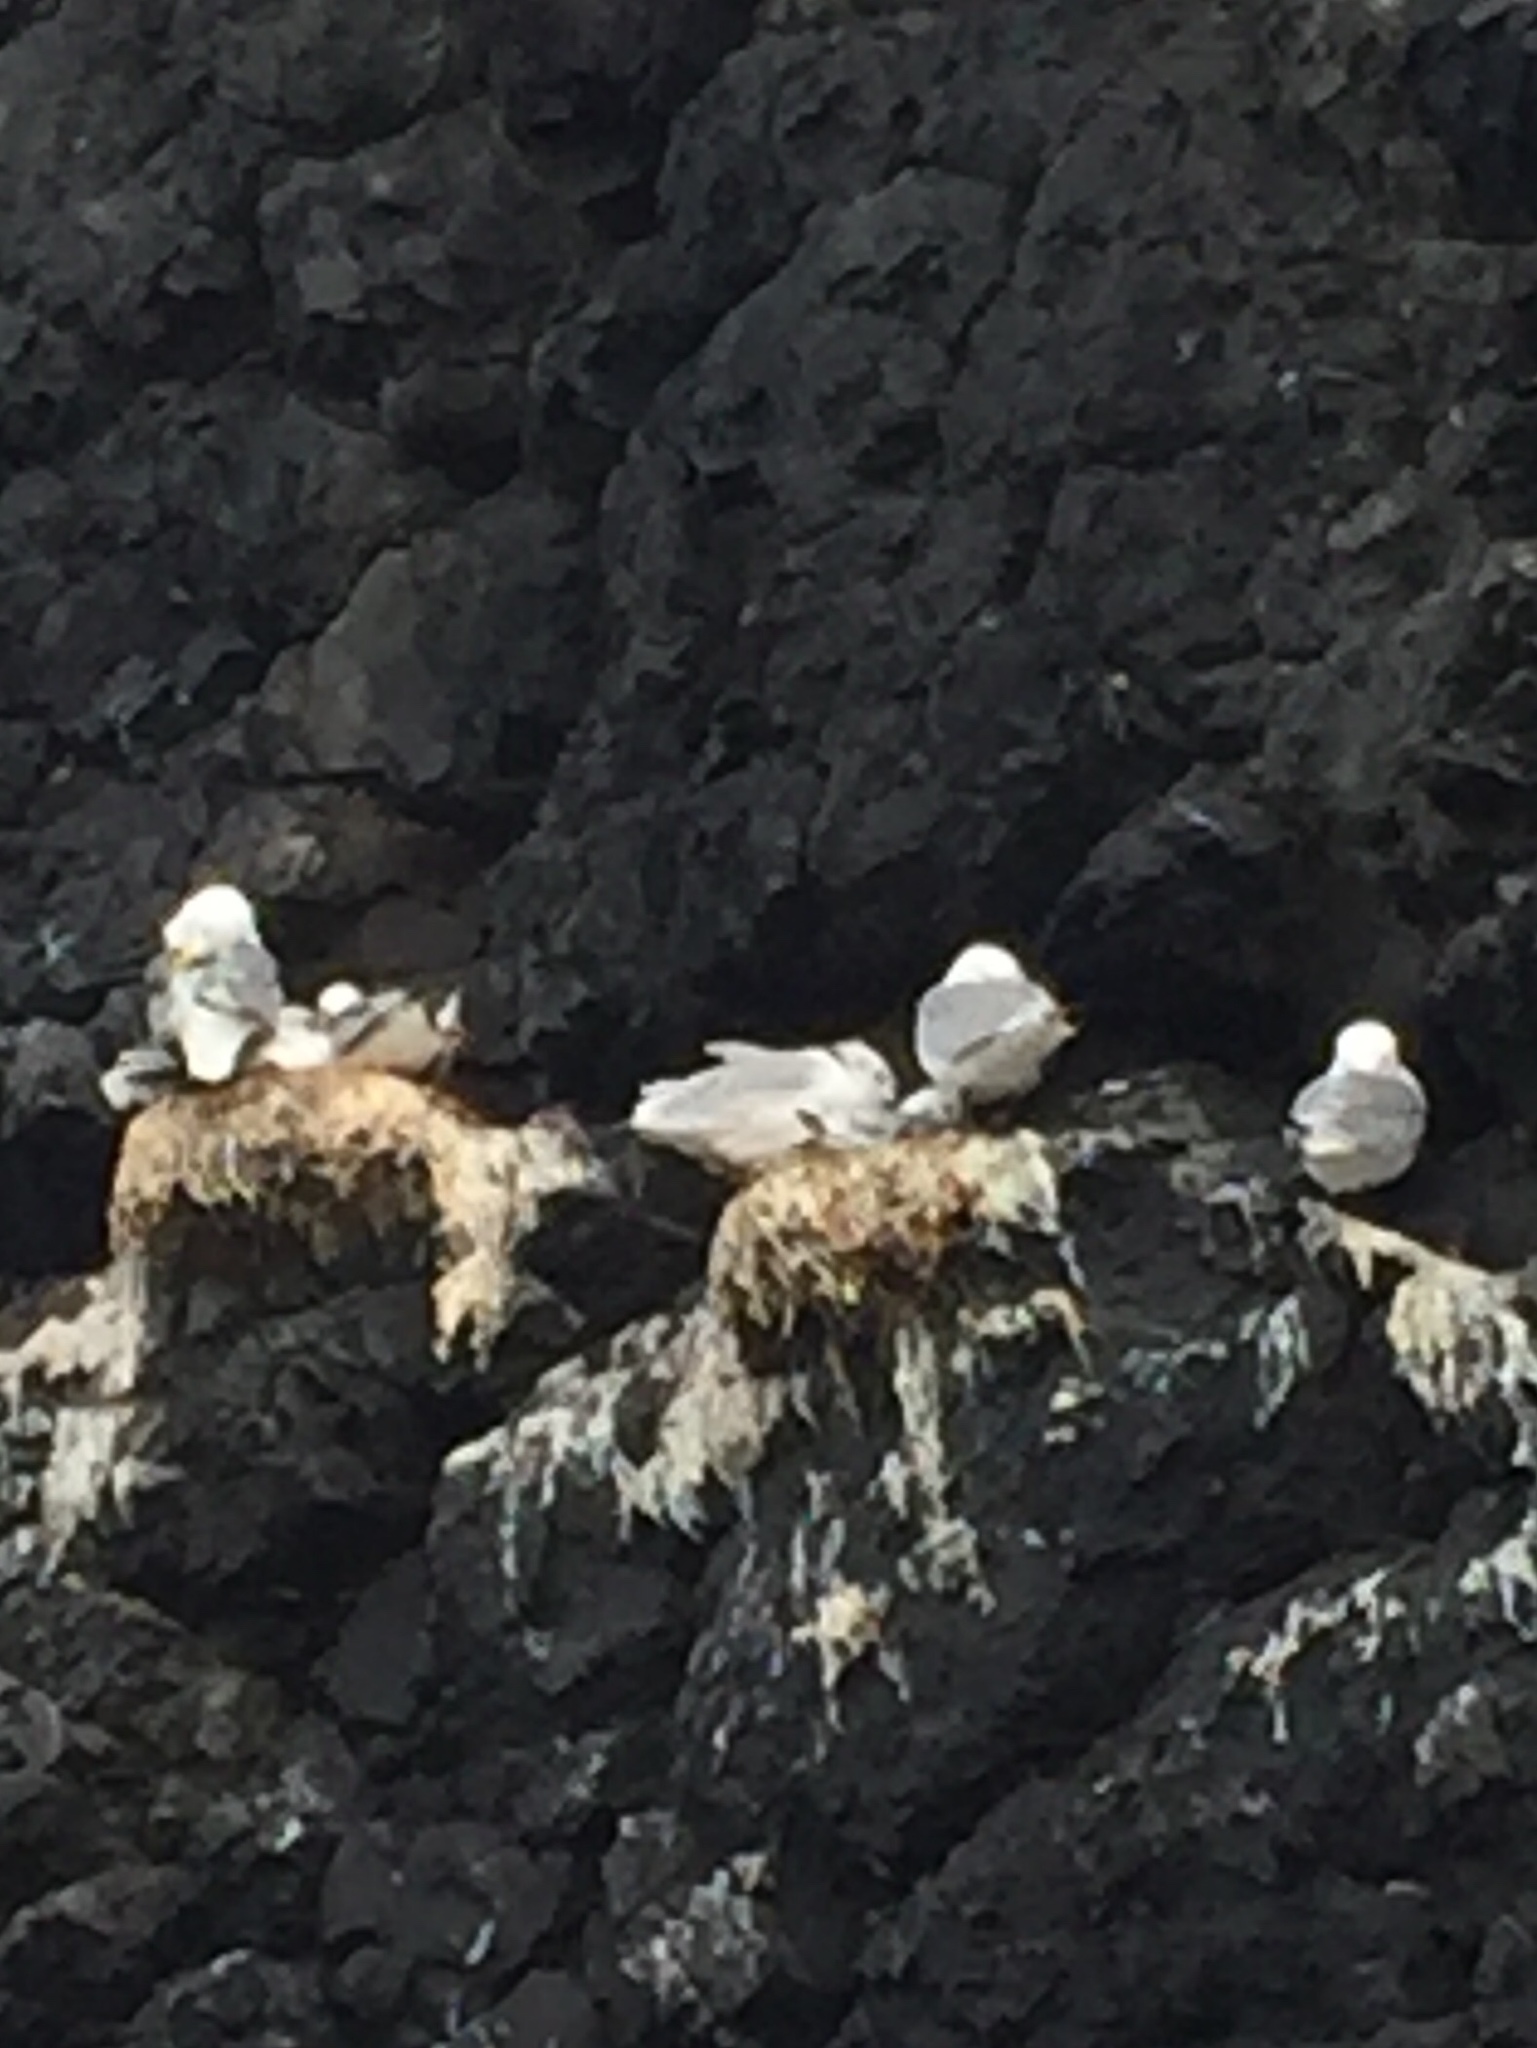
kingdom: Animalia
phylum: Chordata
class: Aves
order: Charadriiformes
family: Laridae
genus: Rissa
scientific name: Rissa tridactyla
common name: Black-legged kittiwake
